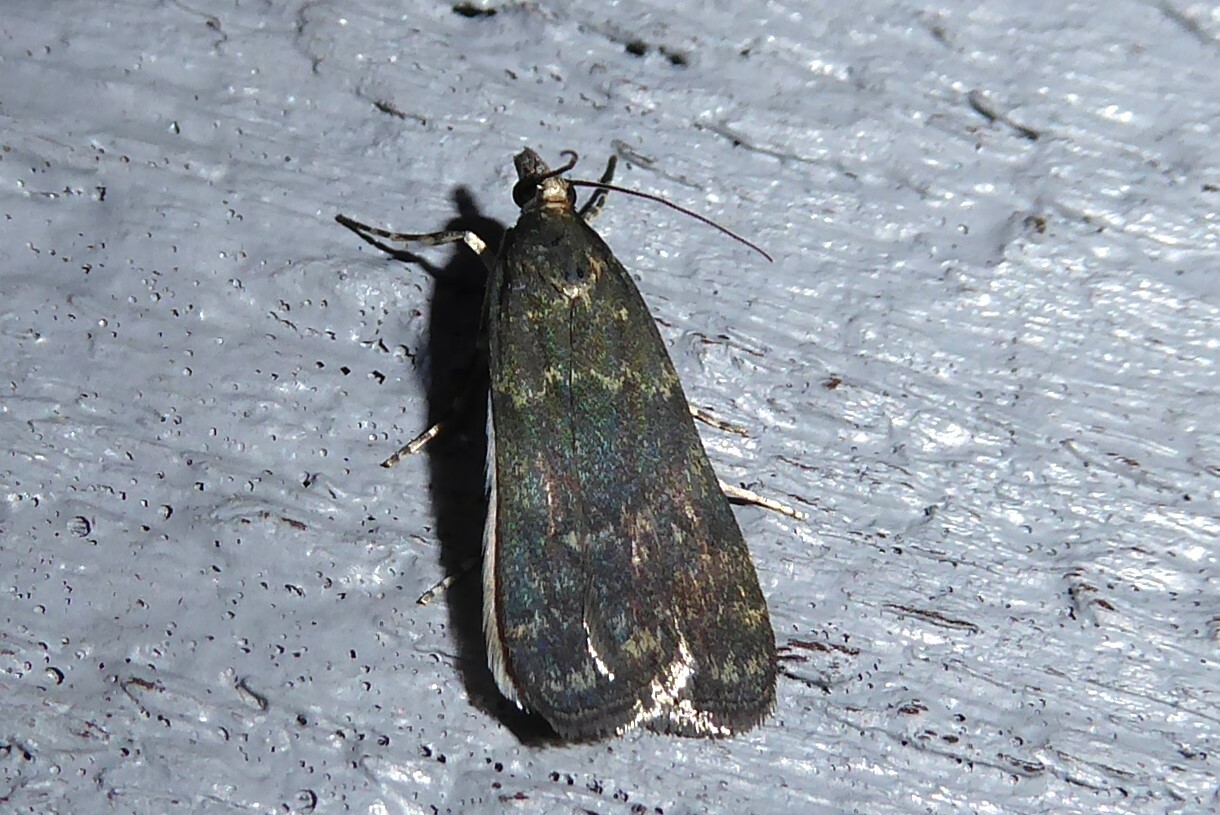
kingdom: Animalia
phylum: Arthropoda
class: Insecta
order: Lepidoptera
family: Crambidae
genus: Eudonia
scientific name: Eudonia cataxesta
